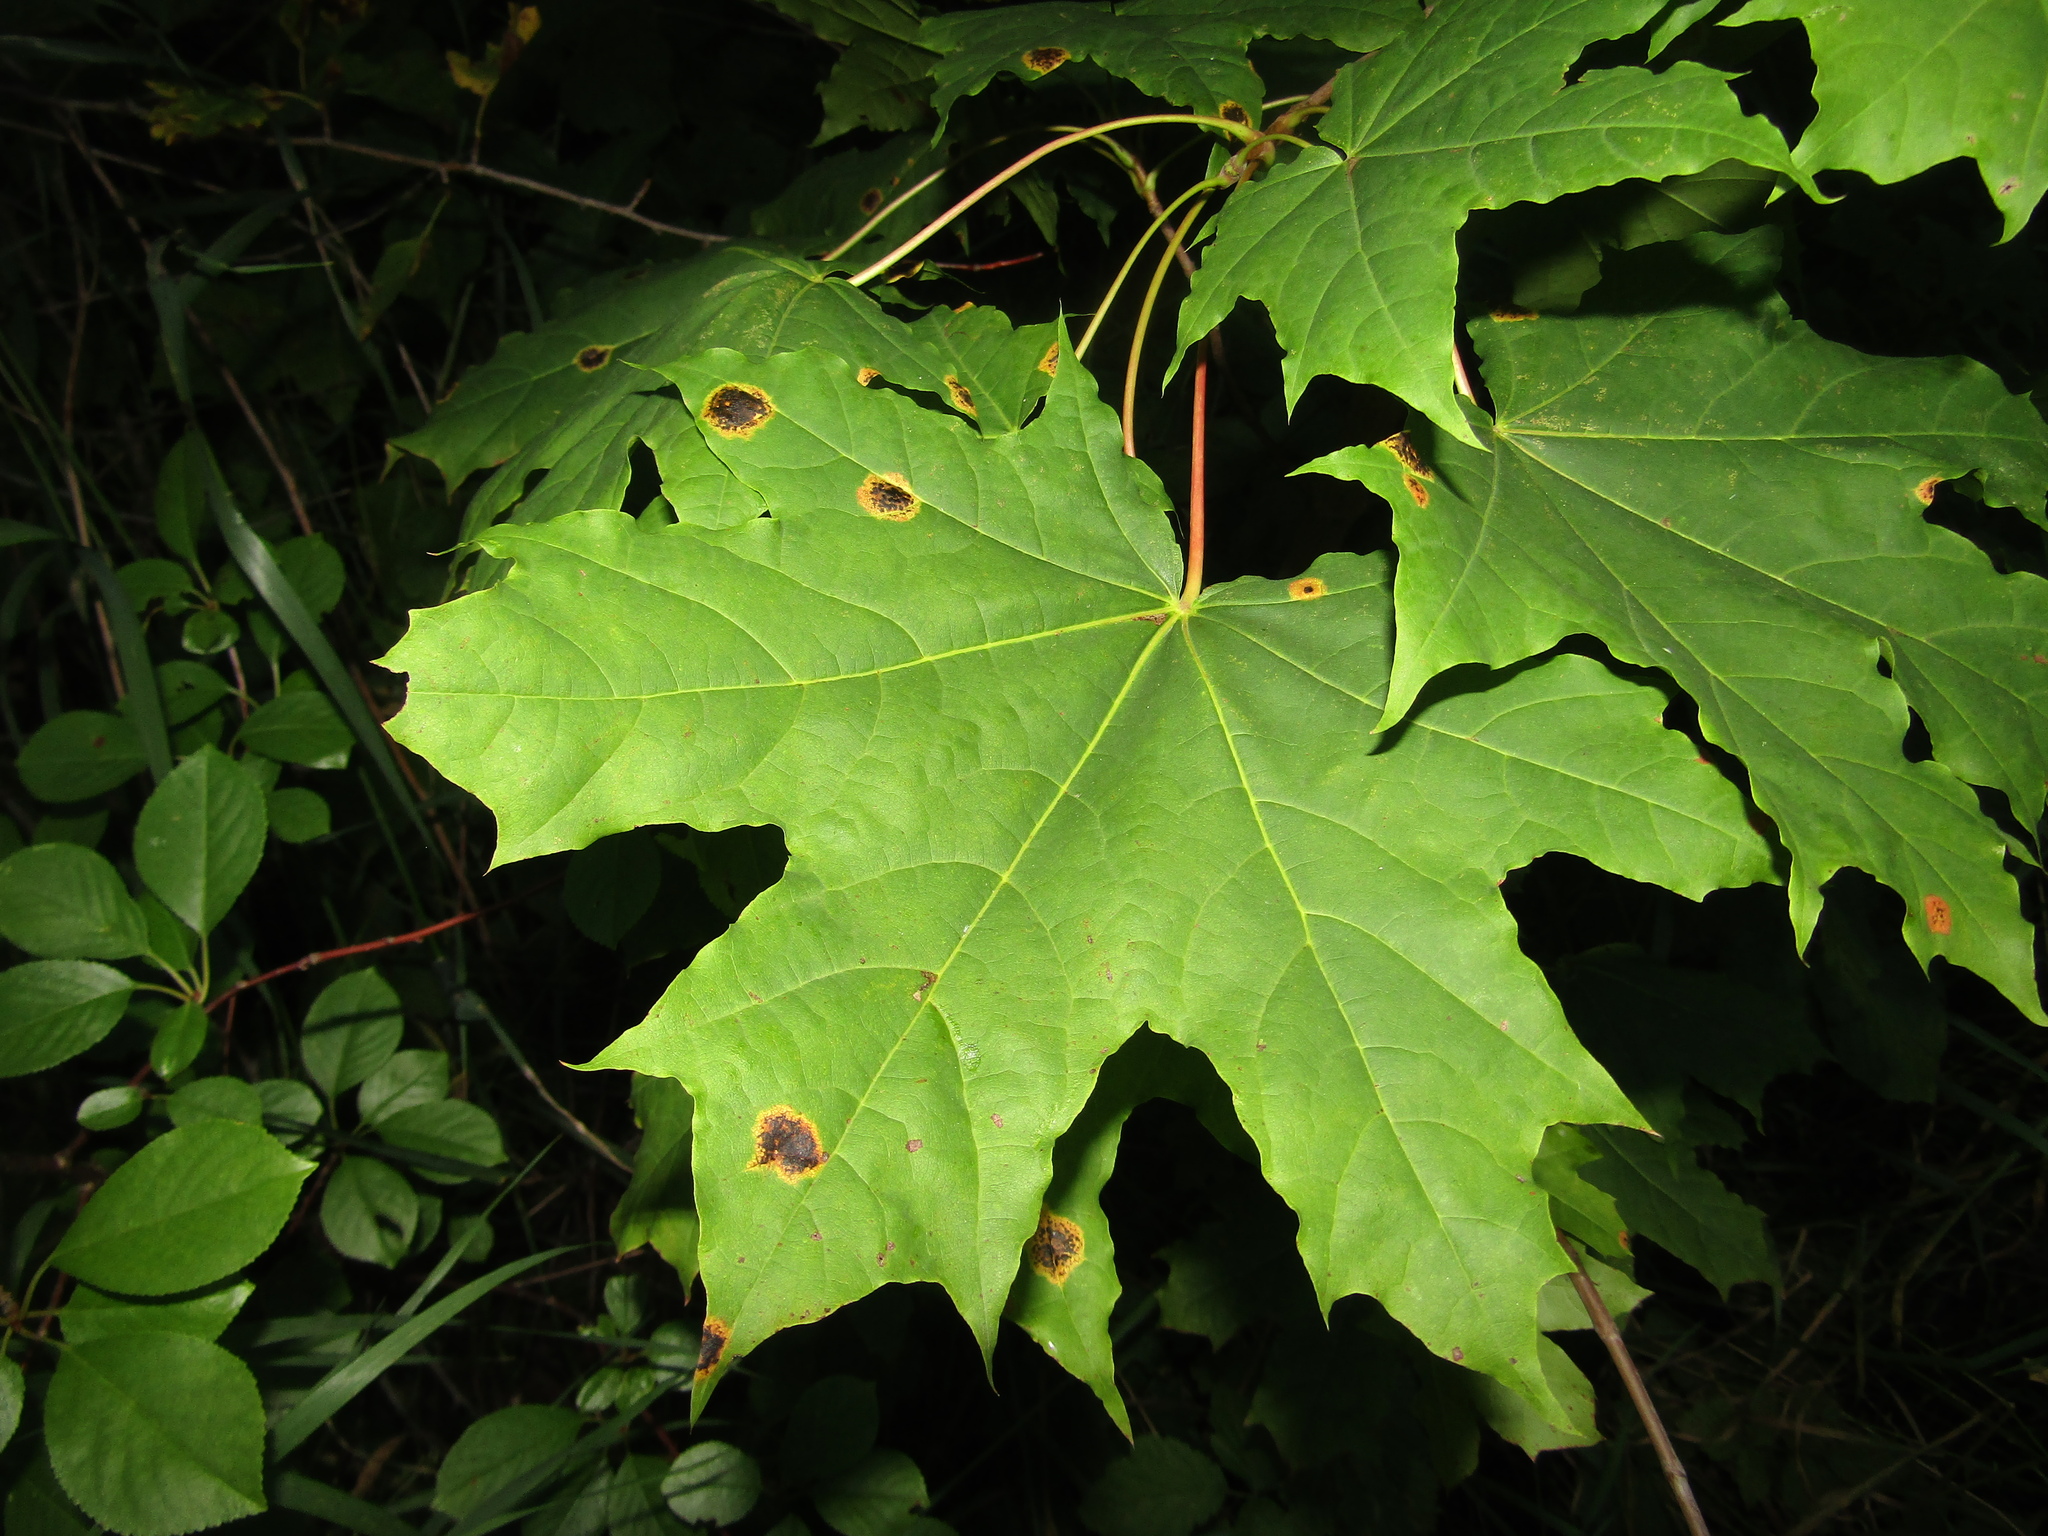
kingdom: Fungi
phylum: Ascomycota
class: Leotiomycetes
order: Rhytismatales
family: Rhytismataceae
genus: Rhytisma
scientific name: Rhytisma acerinum
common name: European tar spot
